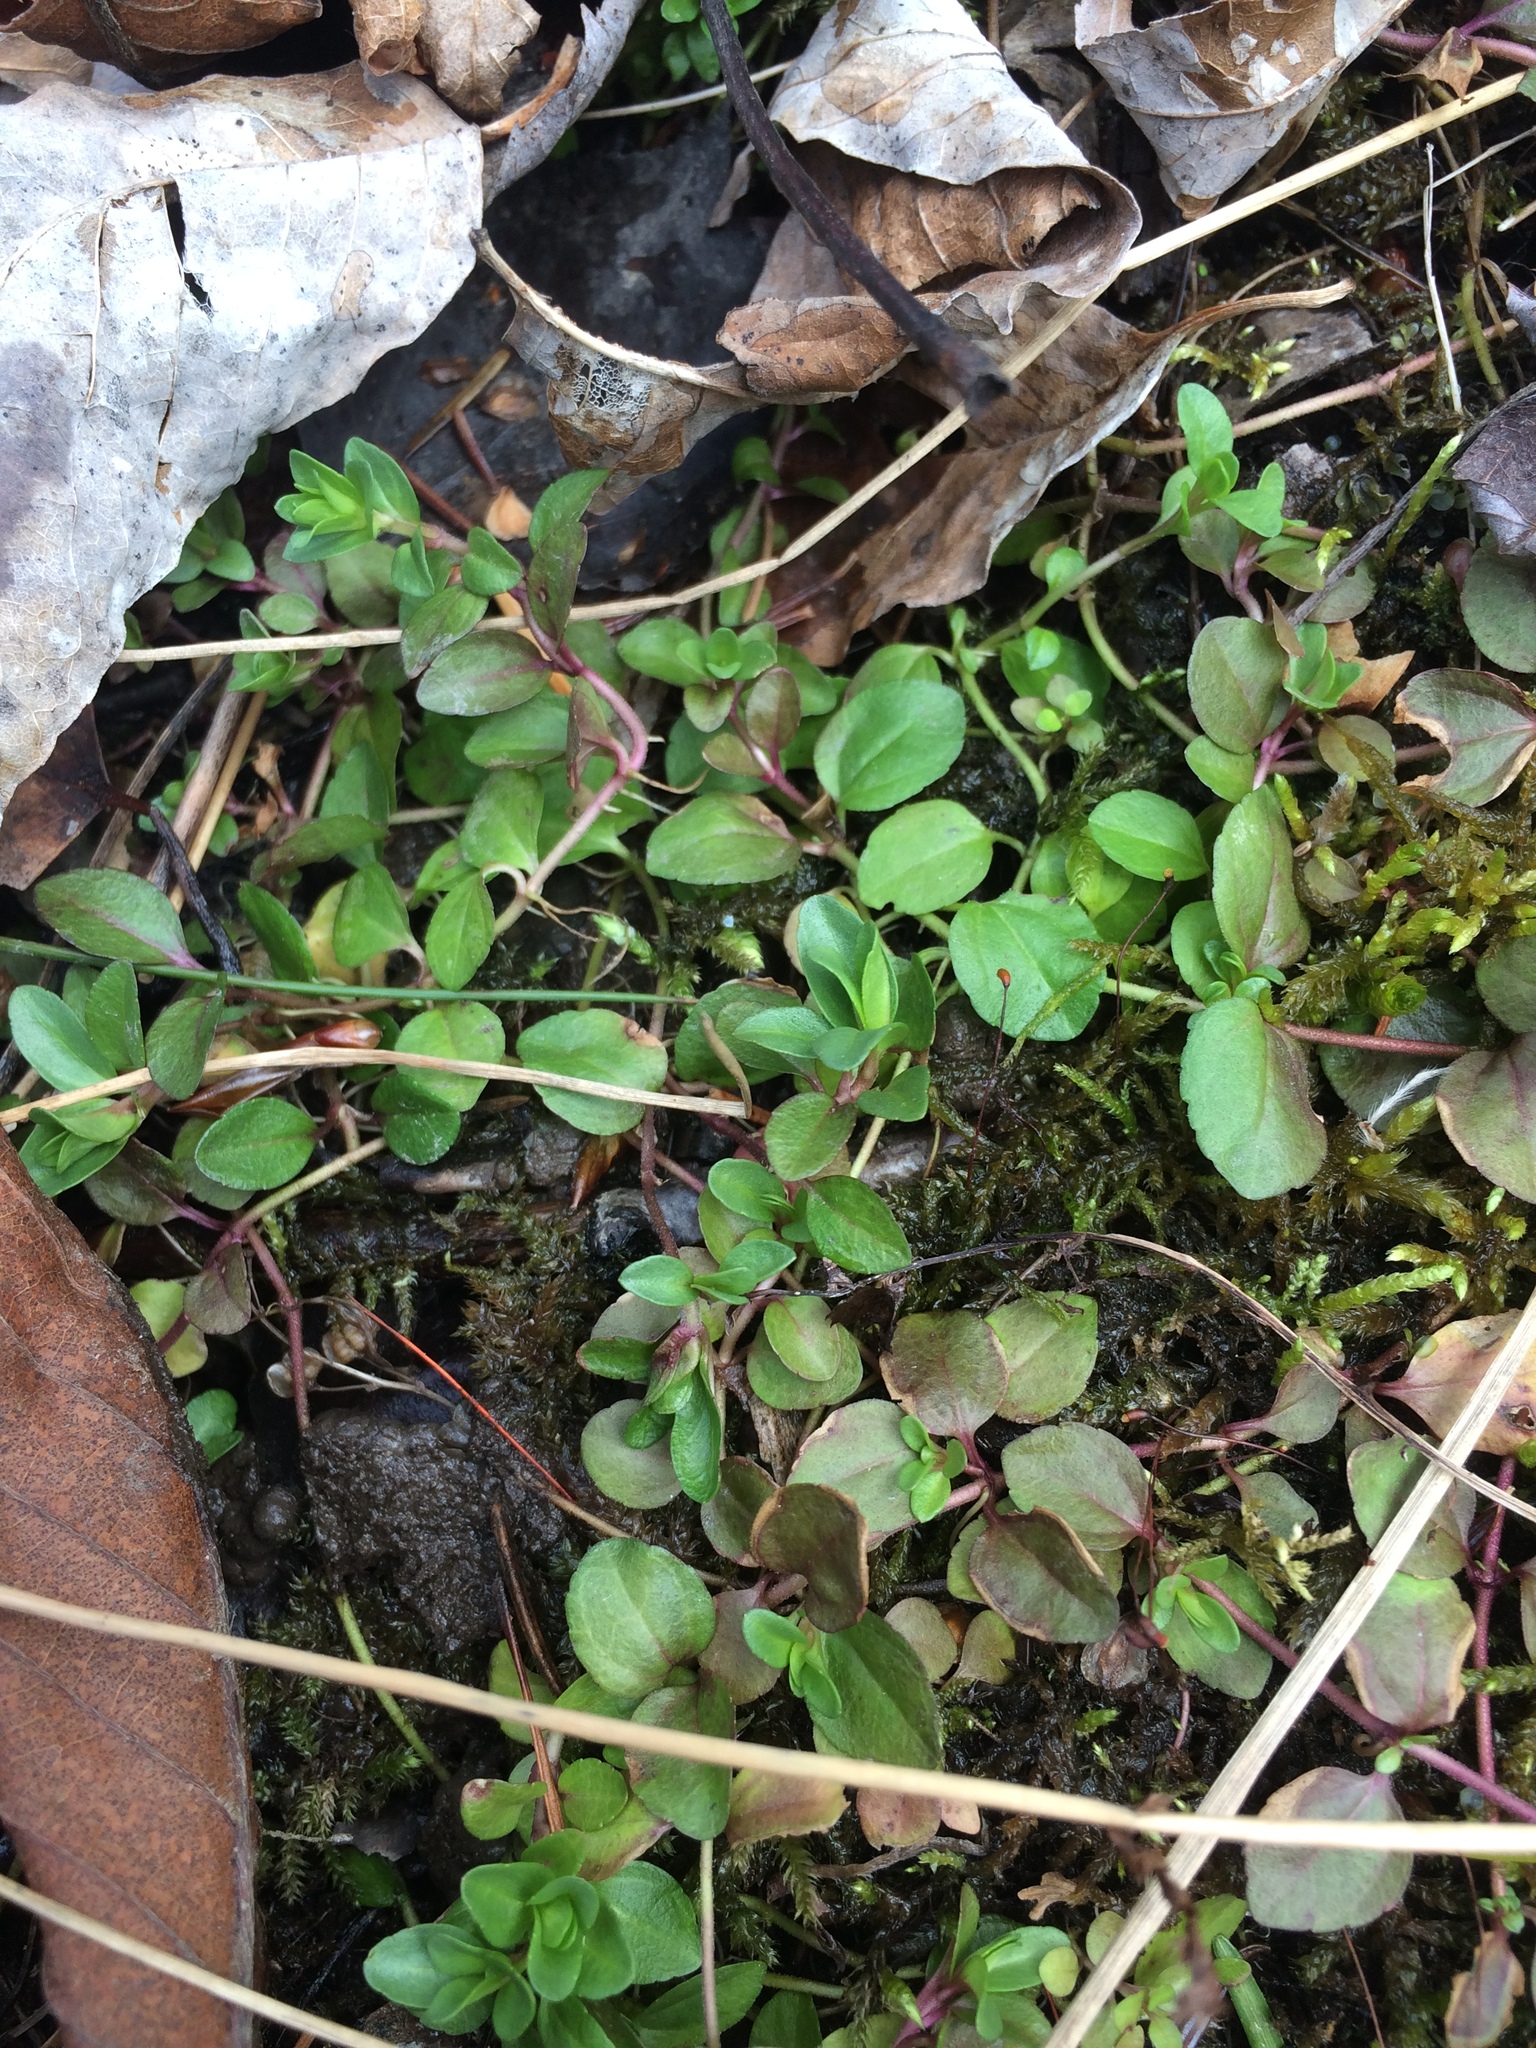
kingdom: Plantae
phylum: Tracheophyta
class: Magnoliopsida
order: Lamiales
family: Plantaginaceae
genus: Veronica
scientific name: Veronica serpyllifolia
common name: Thyme-leaved speedwell
